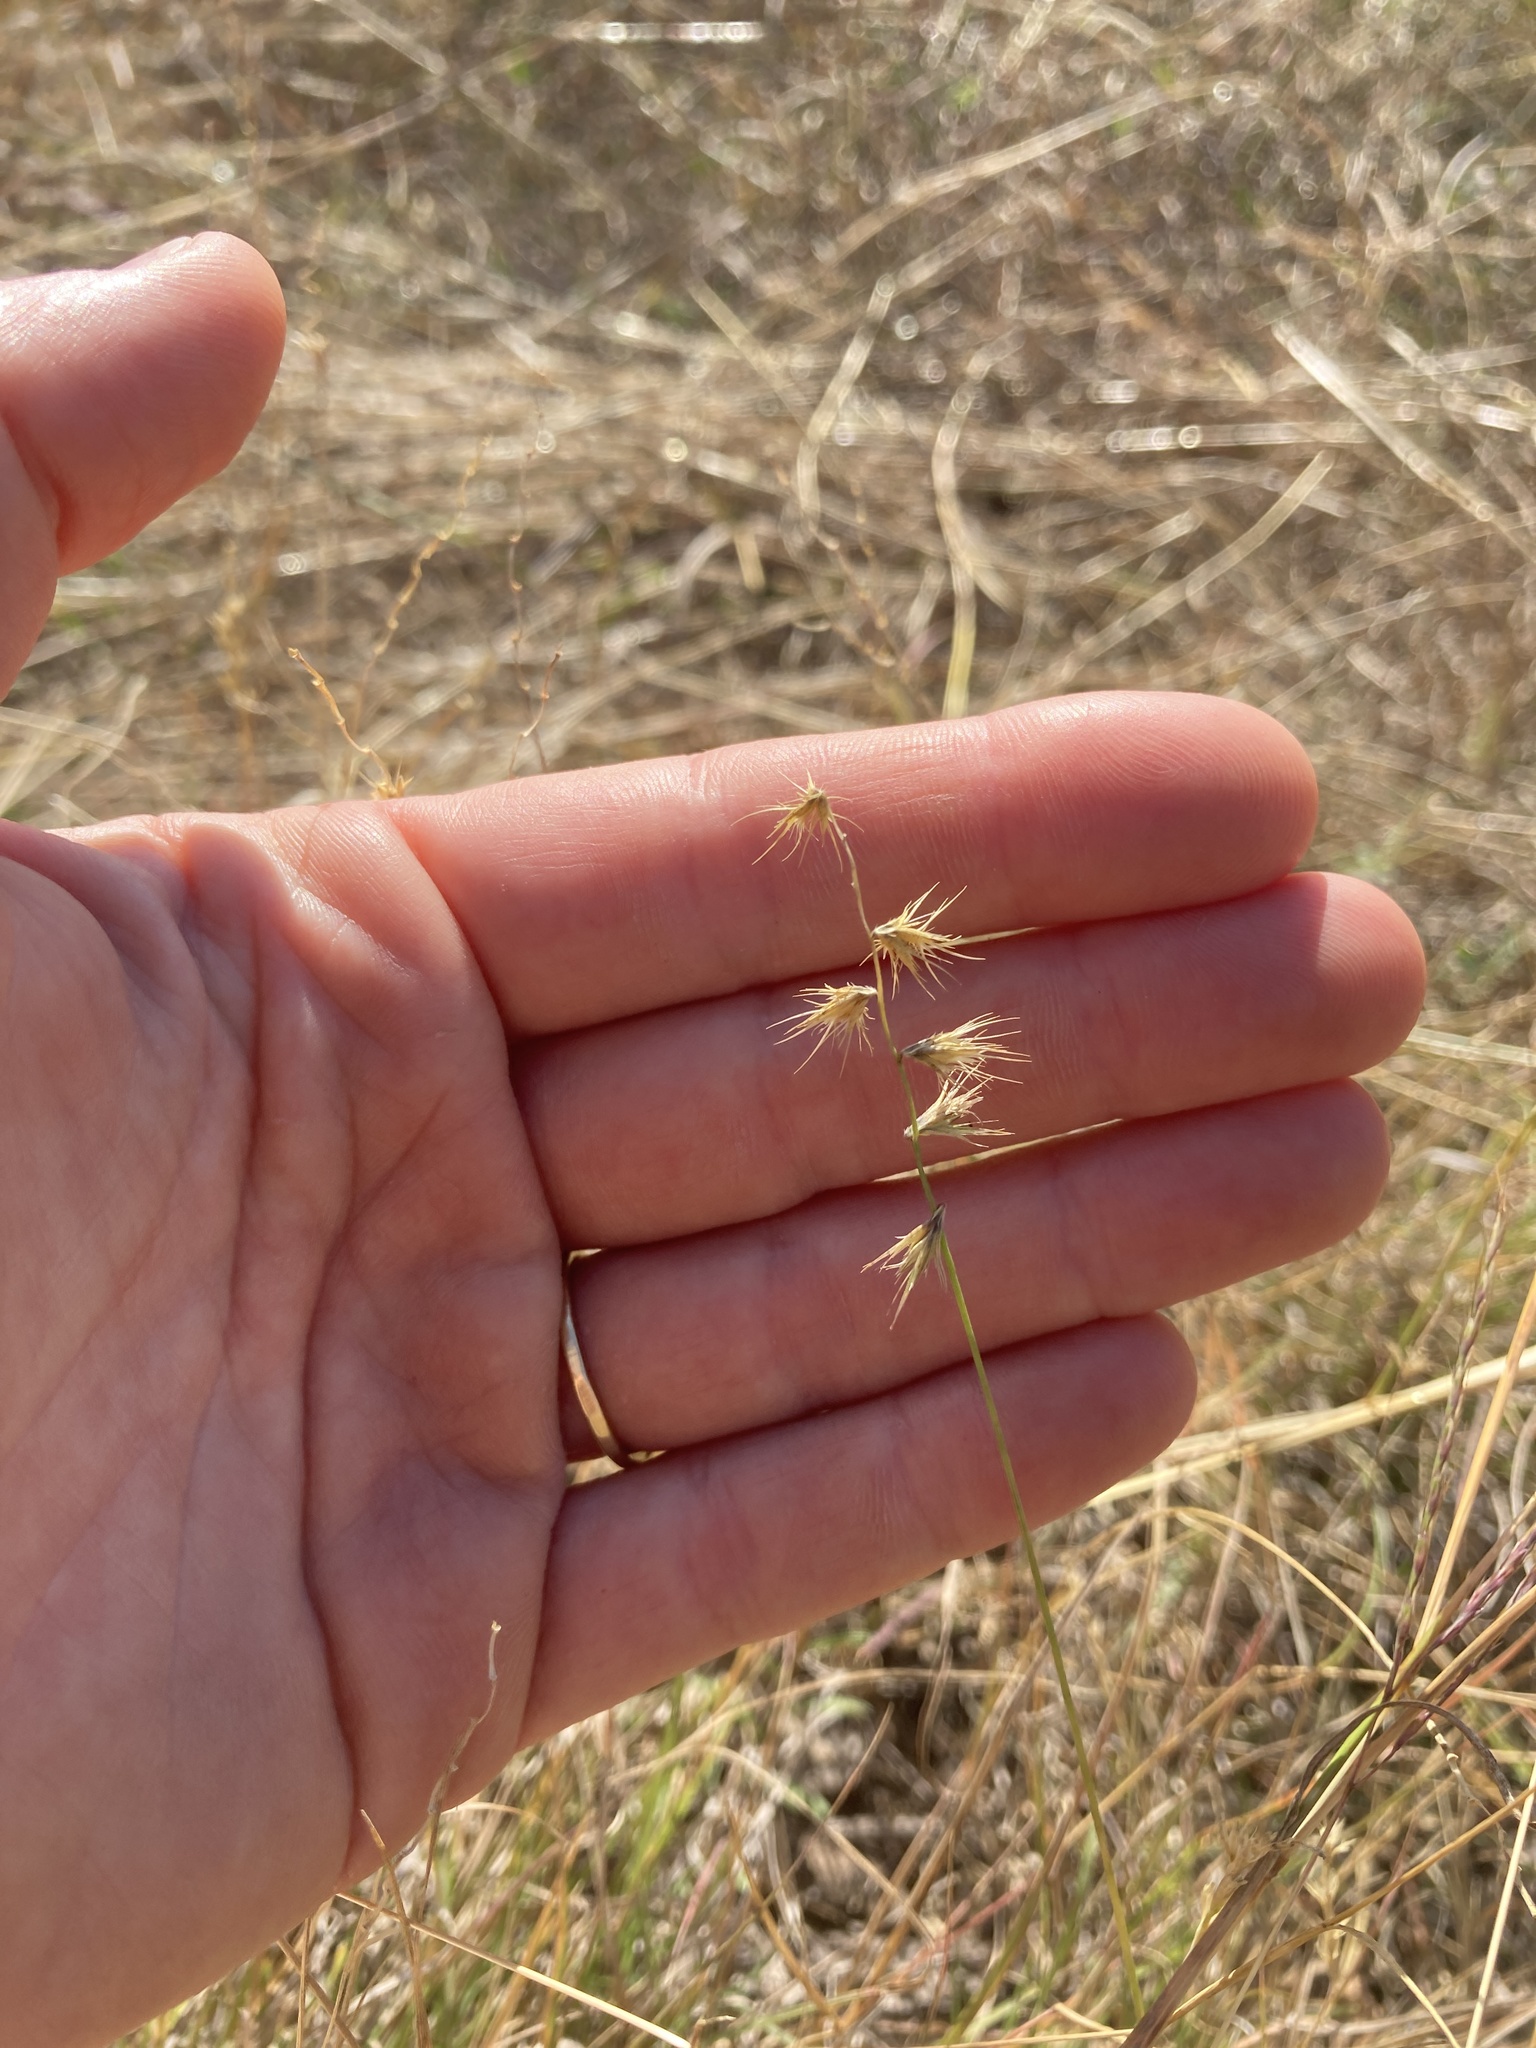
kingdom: Plantae
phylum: Tracheophyta
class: Liliopsida
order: Poales
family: Poaceae
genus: Bouteloua
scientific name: Bouteloua rigidiseta
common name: Texas grama
